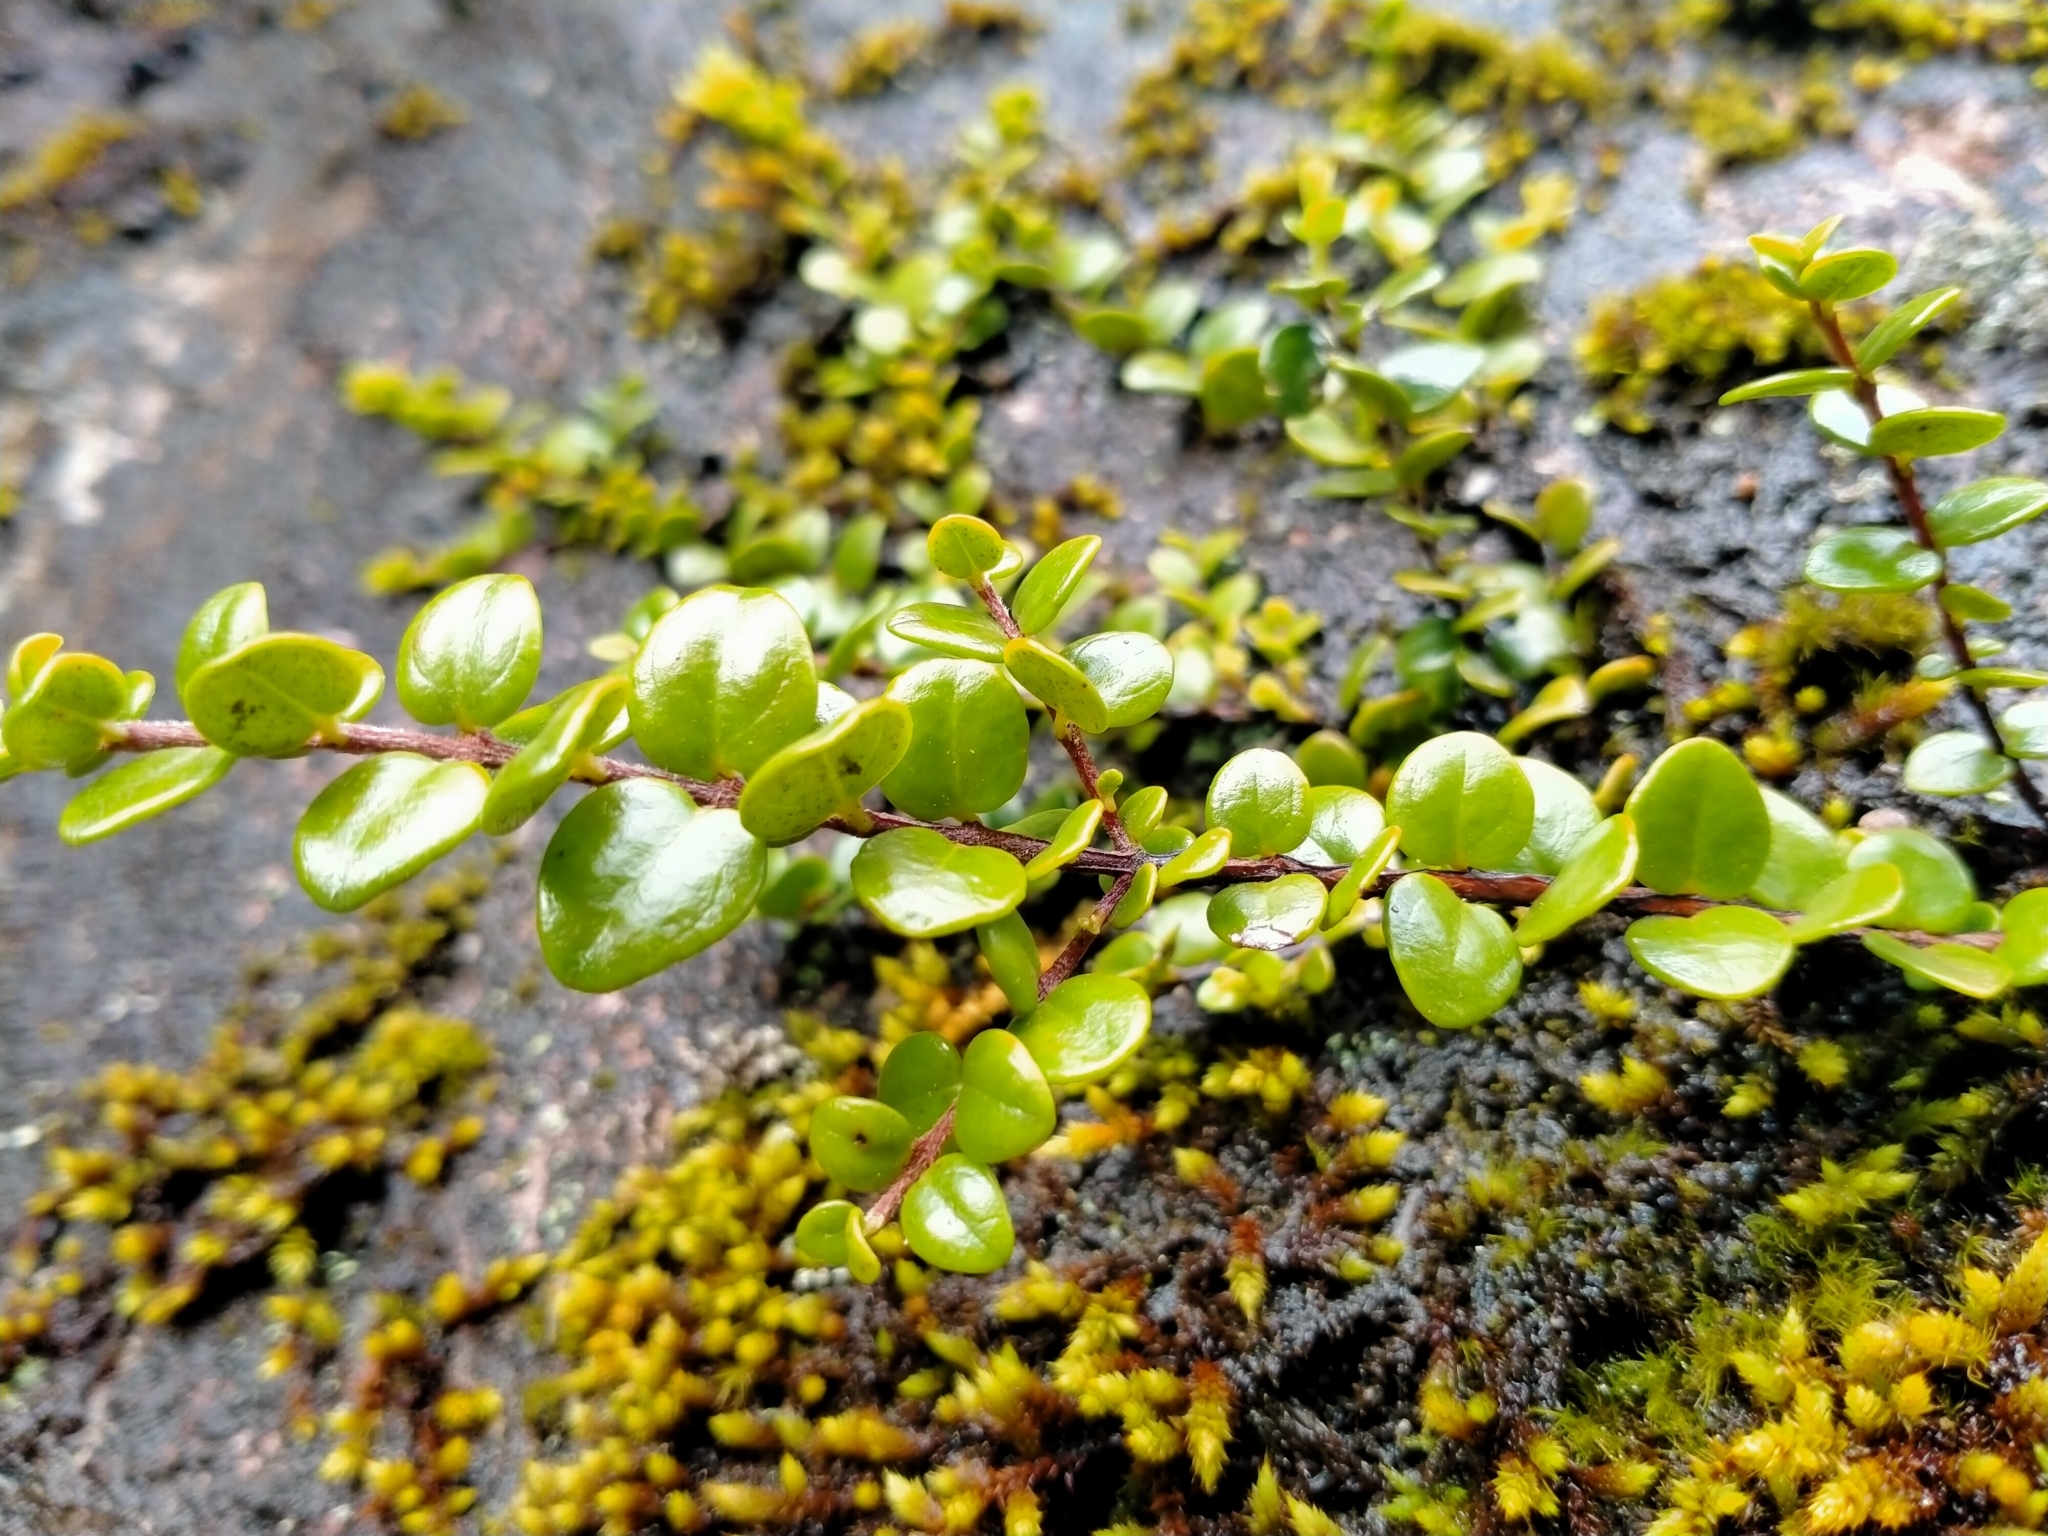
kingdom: Plantae
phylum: Tracheophyta
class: Magnoliopsida
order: Myrtales
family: Myrtaceae
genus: Metrosideros
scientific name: Metrosideros perforata
